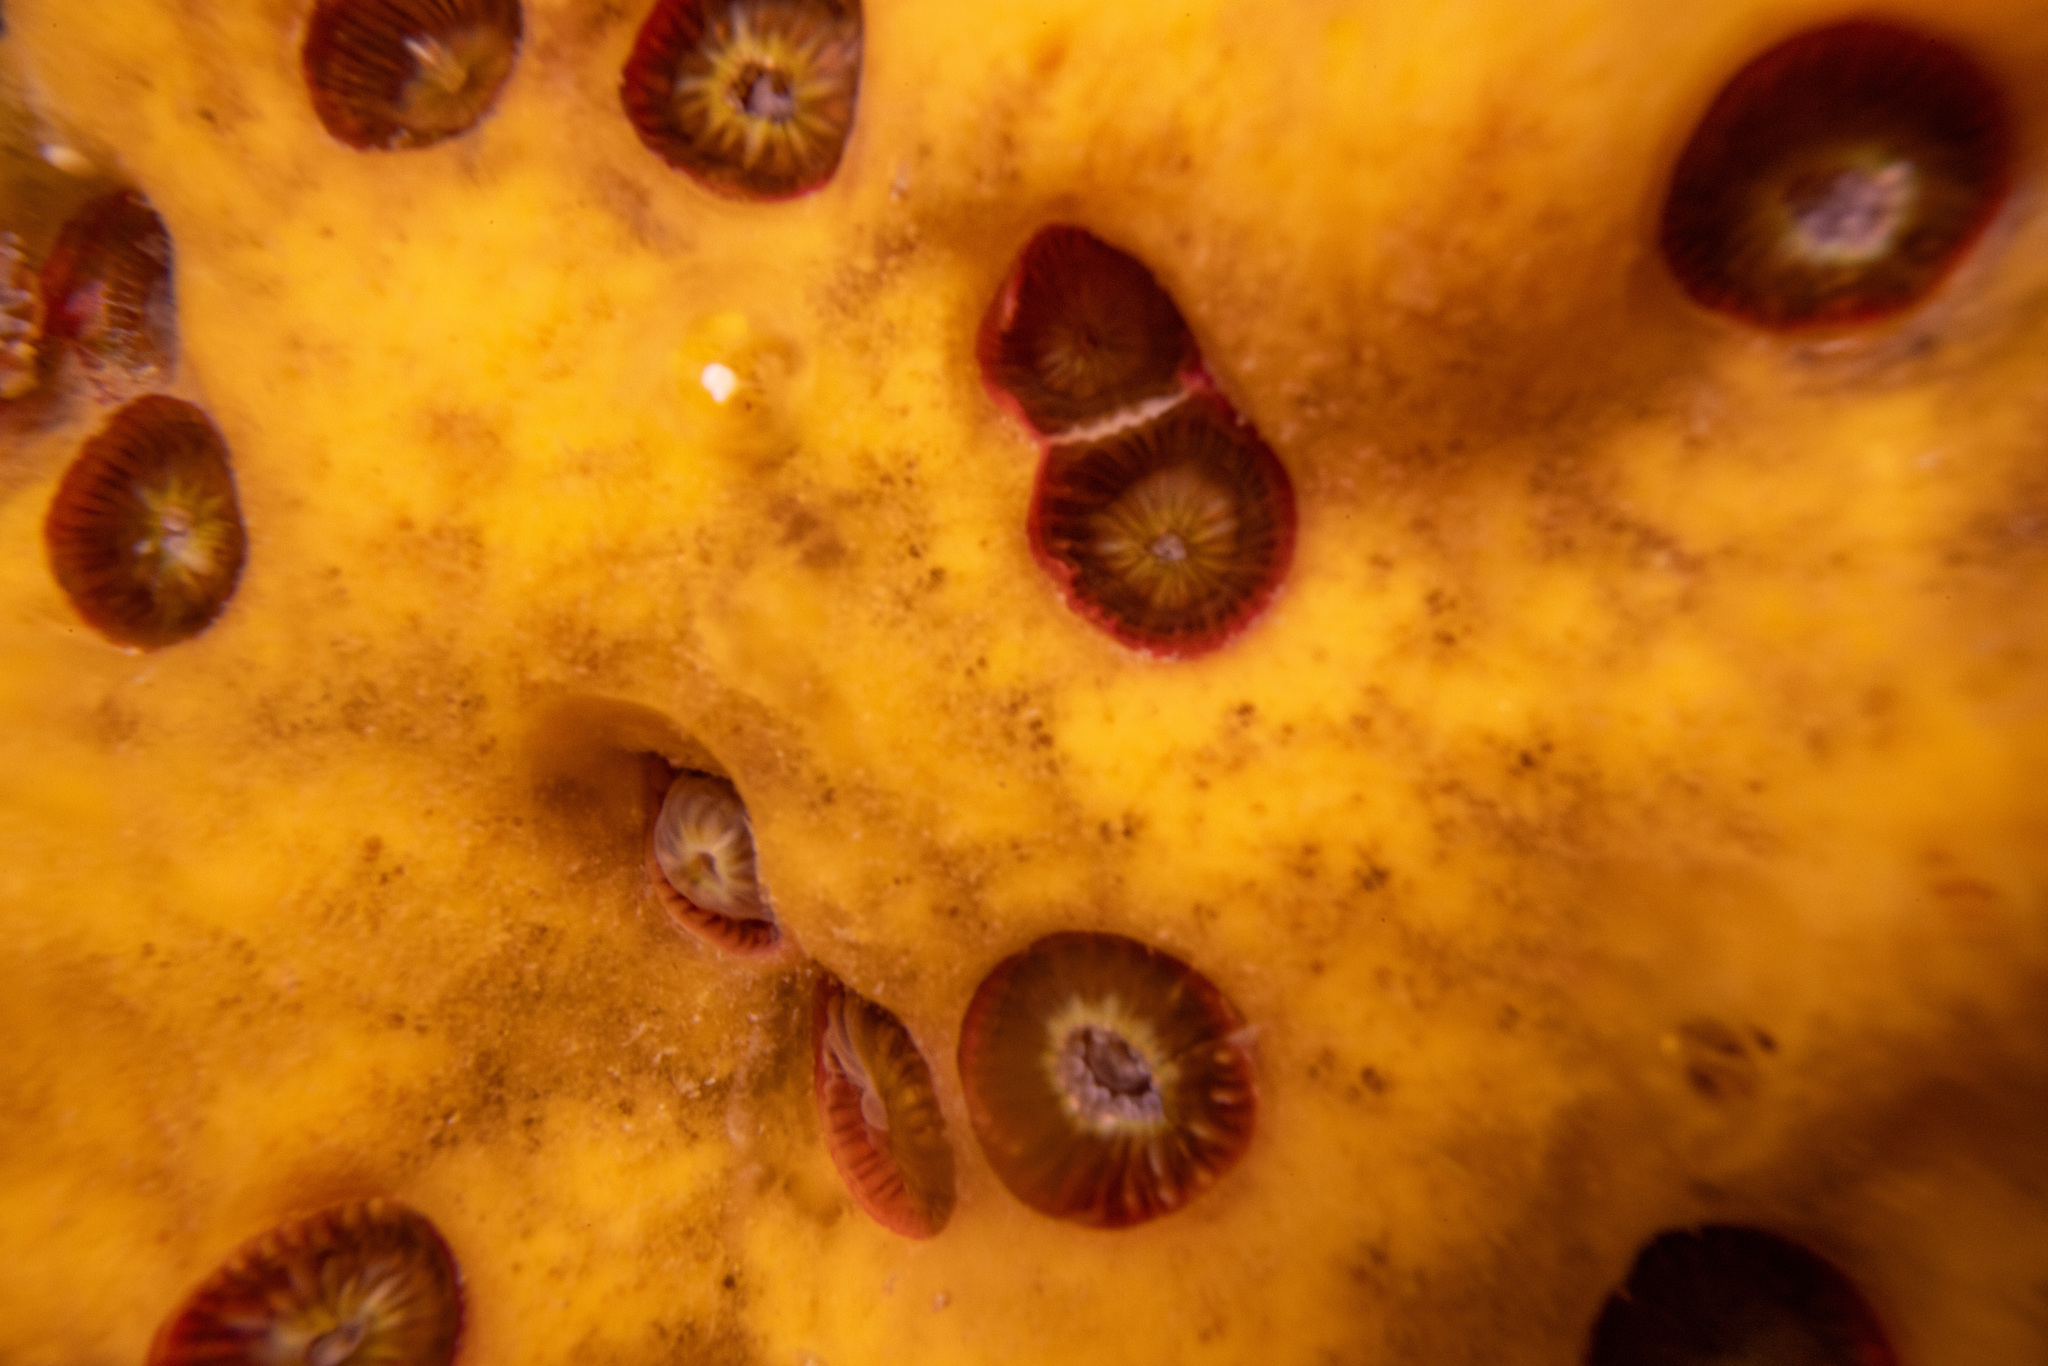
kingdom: Animalia
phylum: Cnidaria
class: Anthozoa
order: Scleractinia
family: Rhizangiidae
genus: Culicia
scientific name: Culicia rubeola
